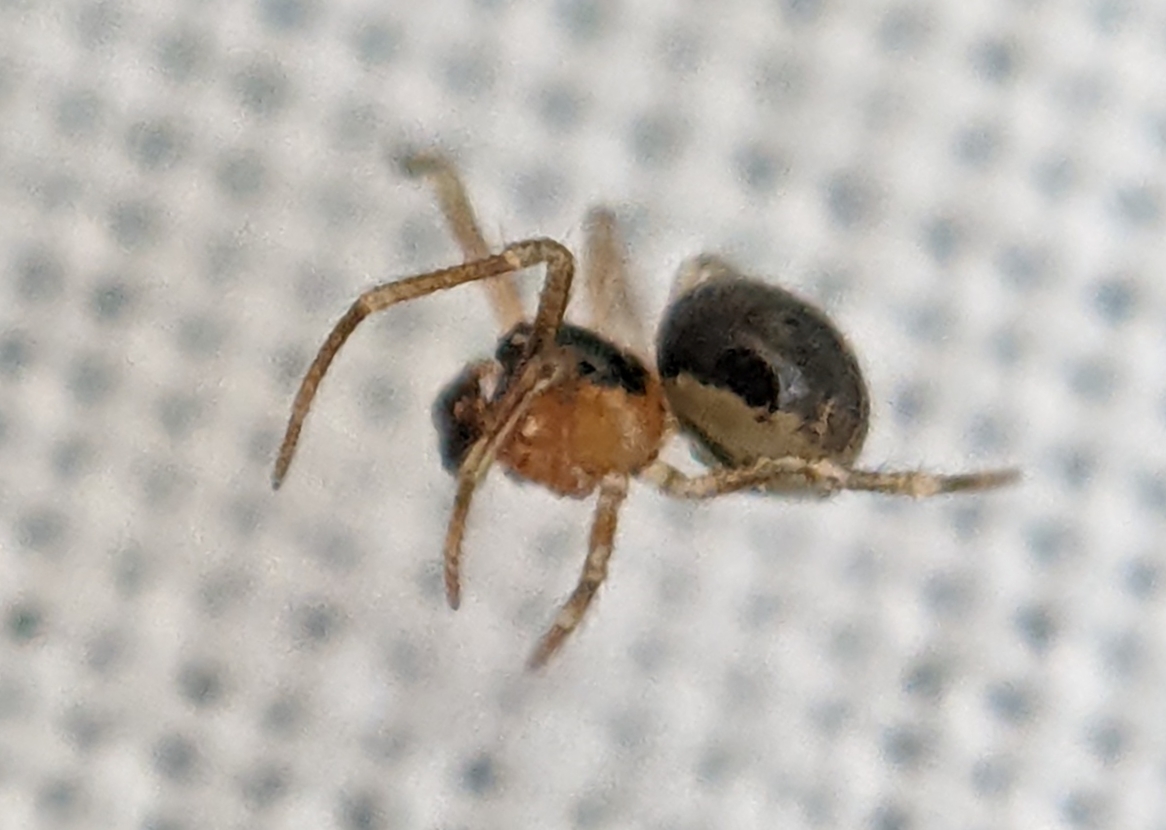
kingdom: Animalia
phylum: Arthropoda
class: Arachnida
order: Araneae
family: Theridiidae
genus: Paidiscura
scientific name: Paidiscura pallens
